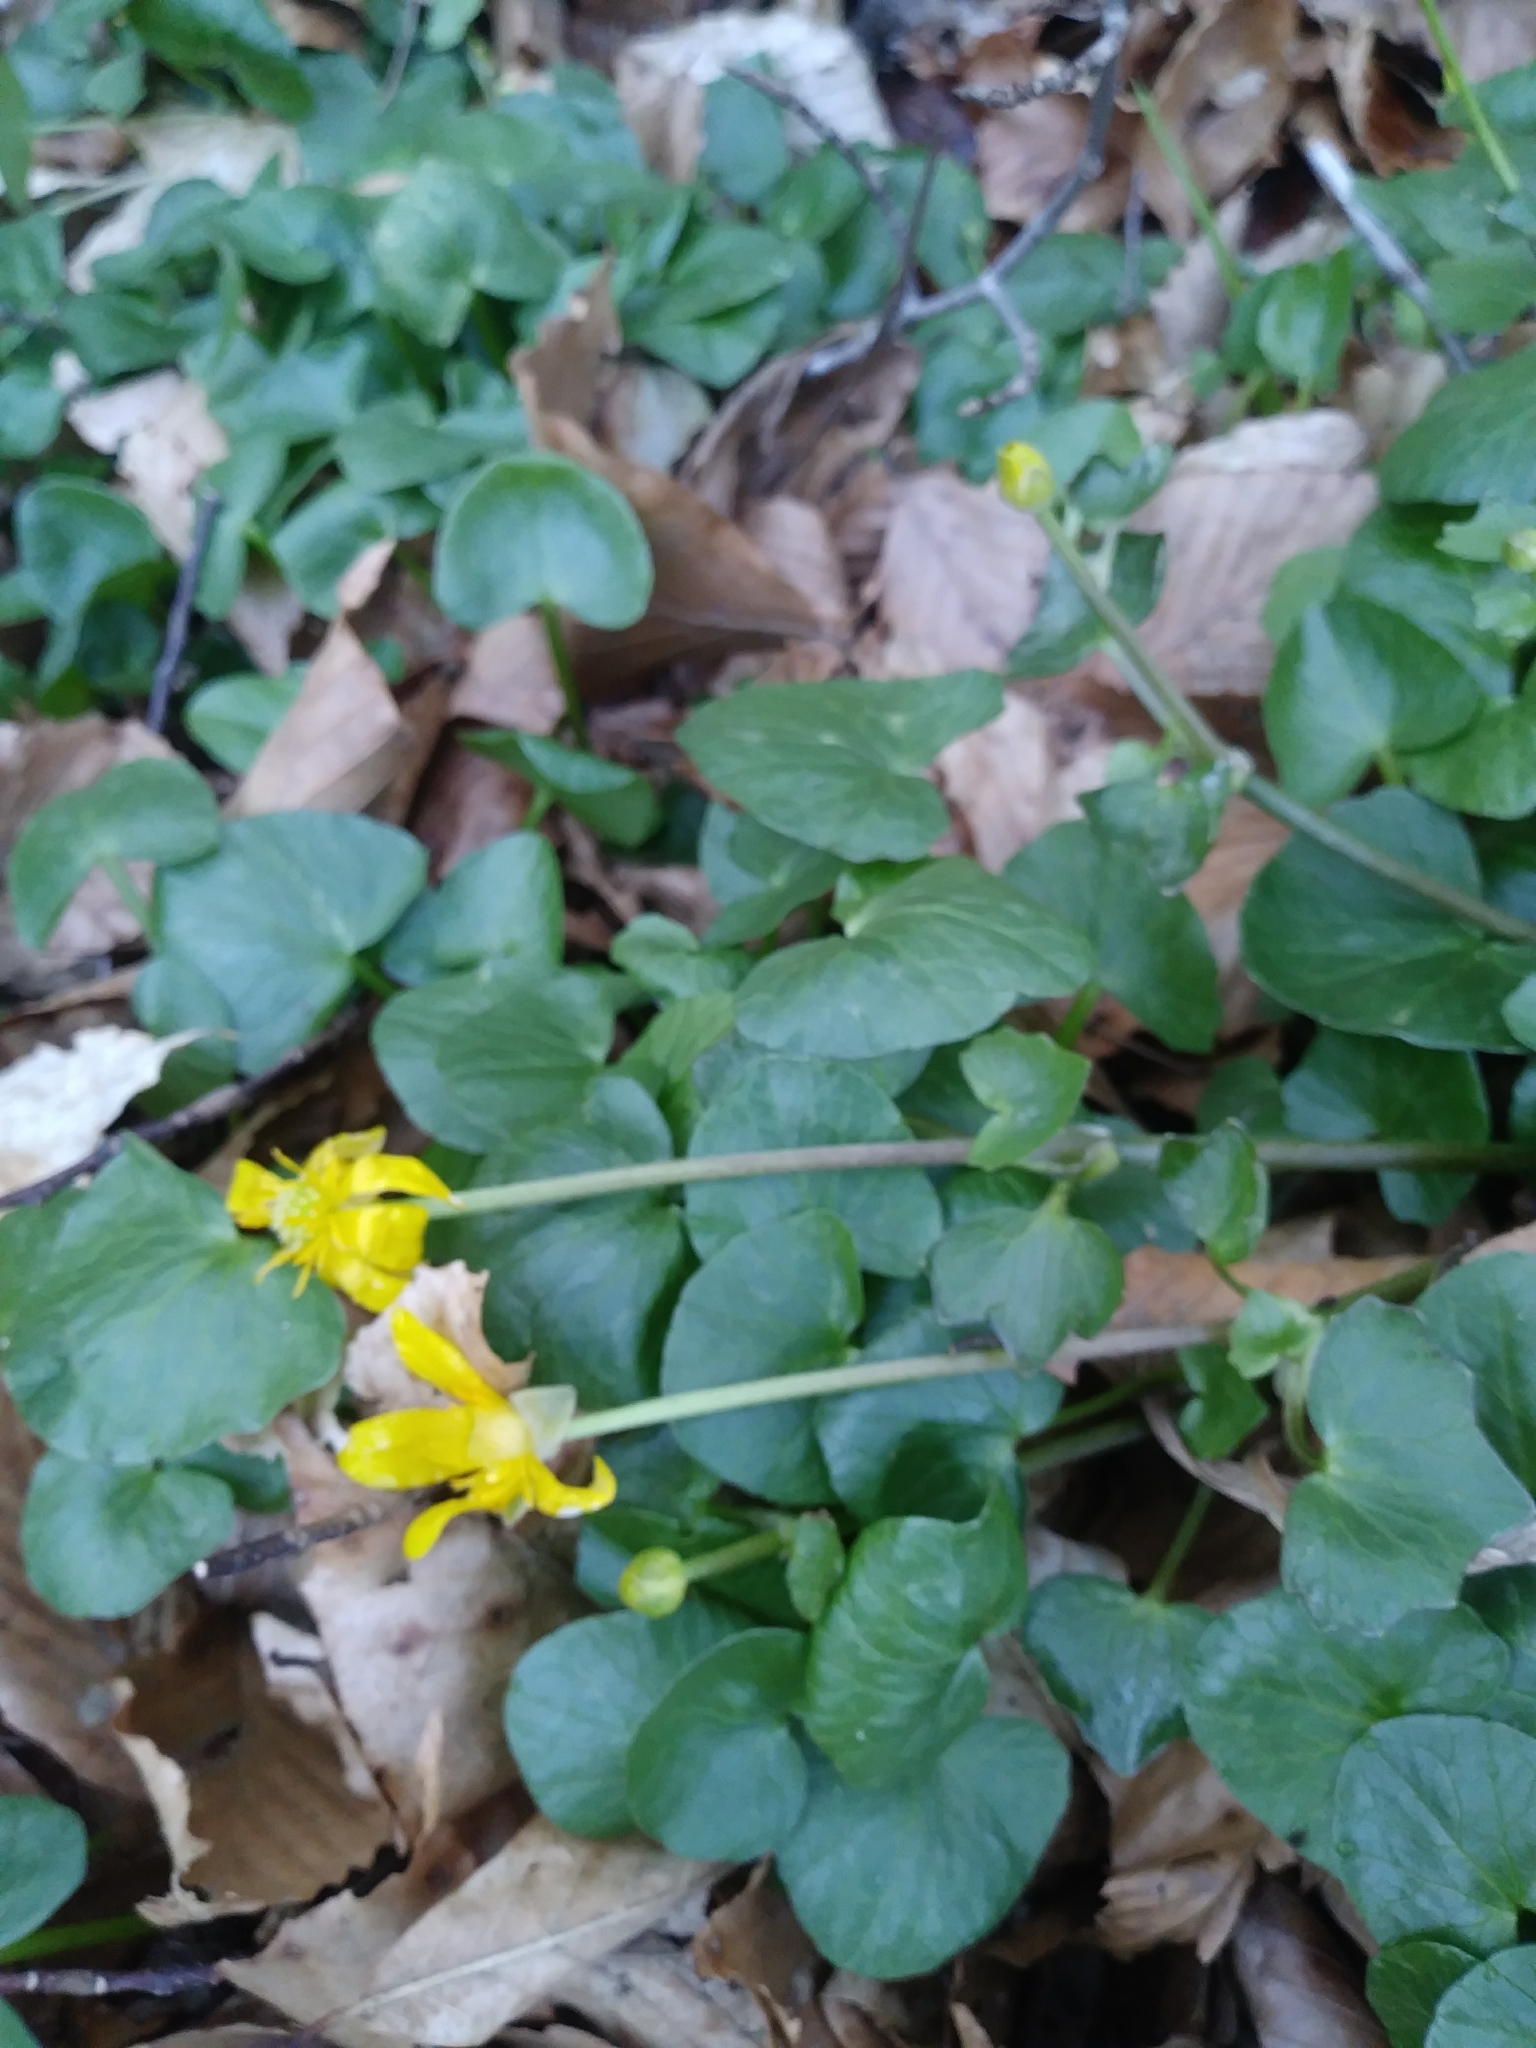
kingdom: Plantae
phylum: Tracheophyta
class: Magnoliopsida
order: Ranunculales
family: Ranunculaceae
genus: Ficaria
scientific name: Ficaria verna
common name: Lesser celandine
